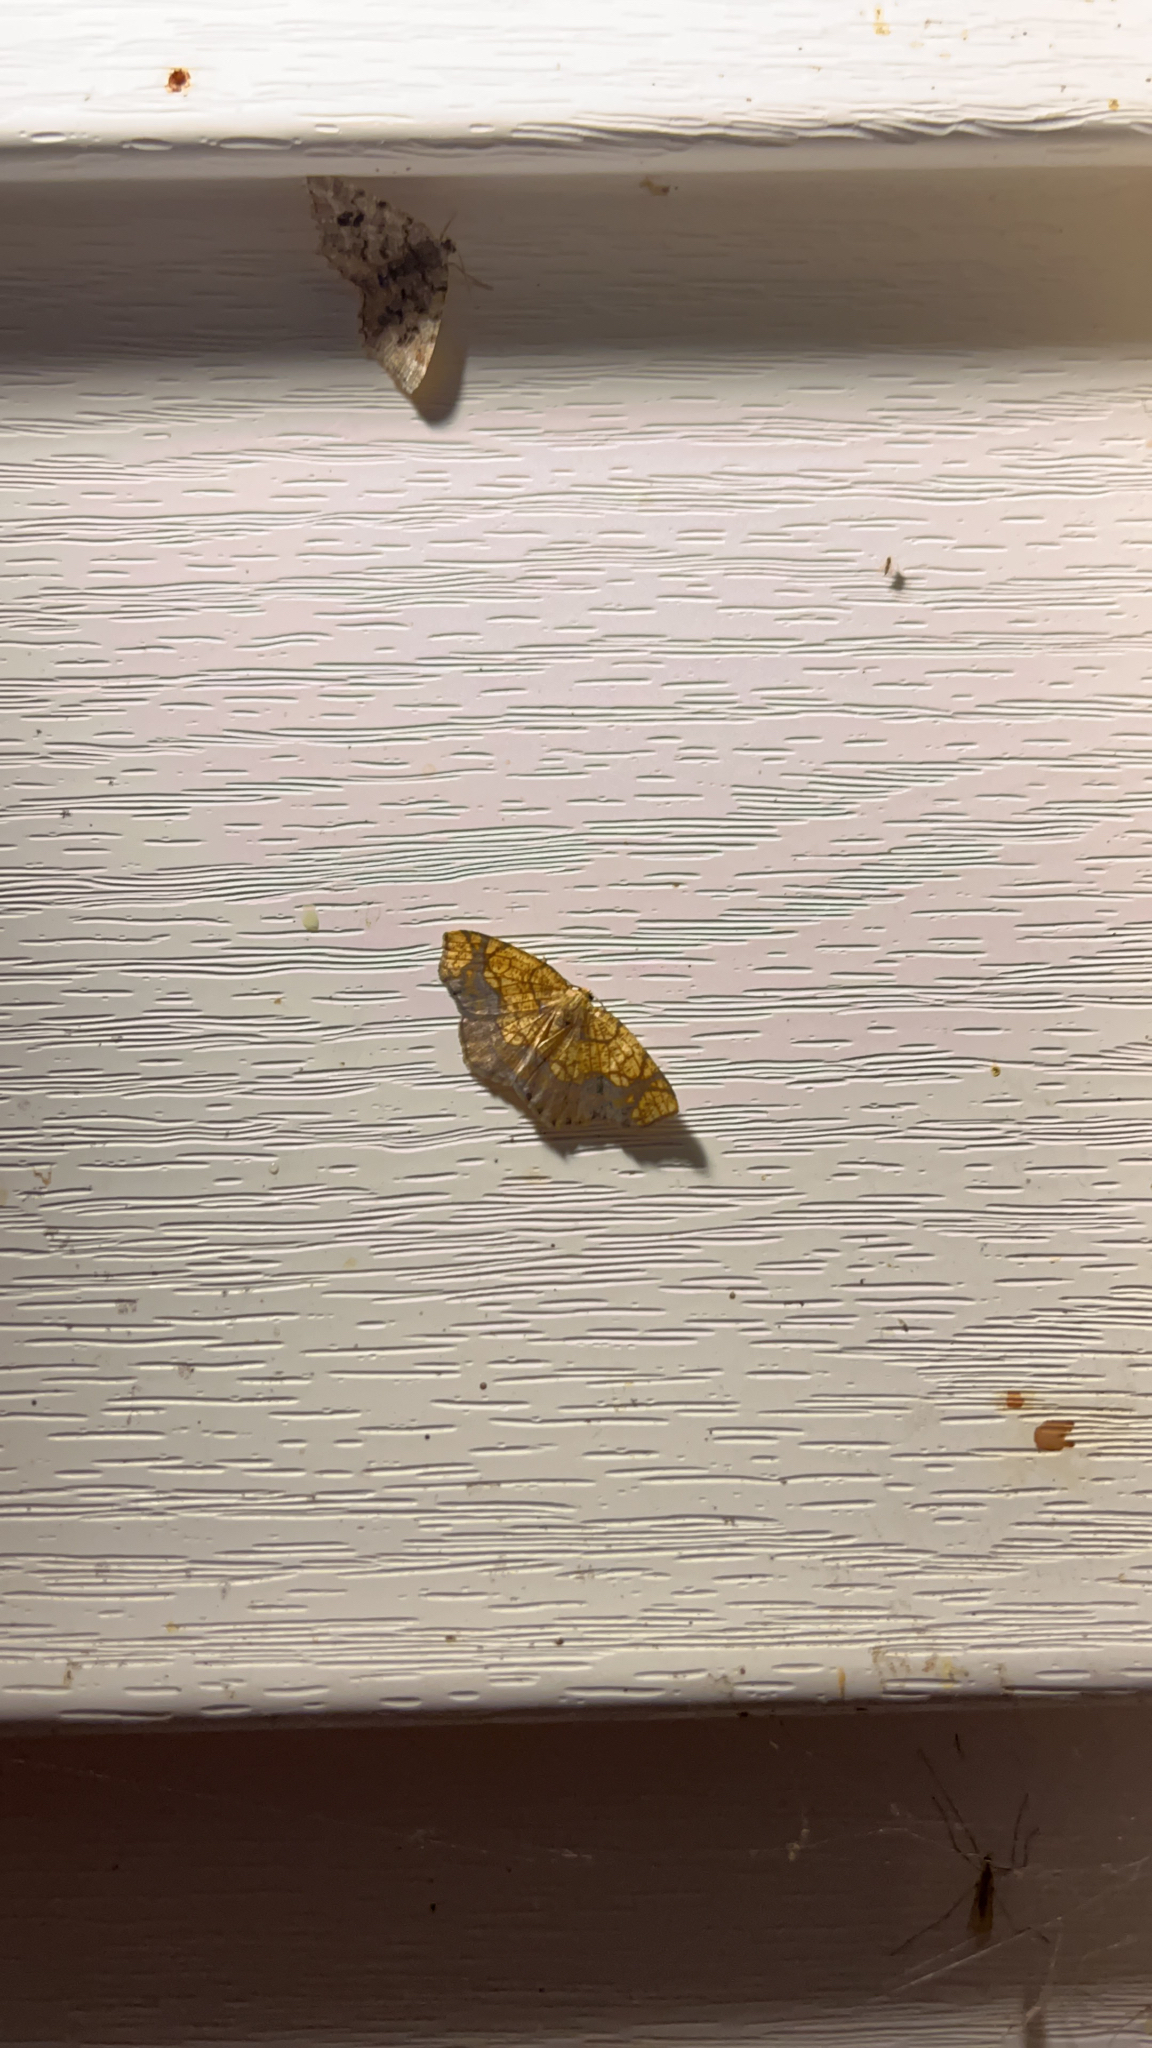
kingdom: Animalia
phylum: Arthropoda
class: Insecta
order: Lepidoptera
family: Geometridae
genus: Nematocampa
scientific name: Nematocampa resistaria
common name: Horned spanworm moth
